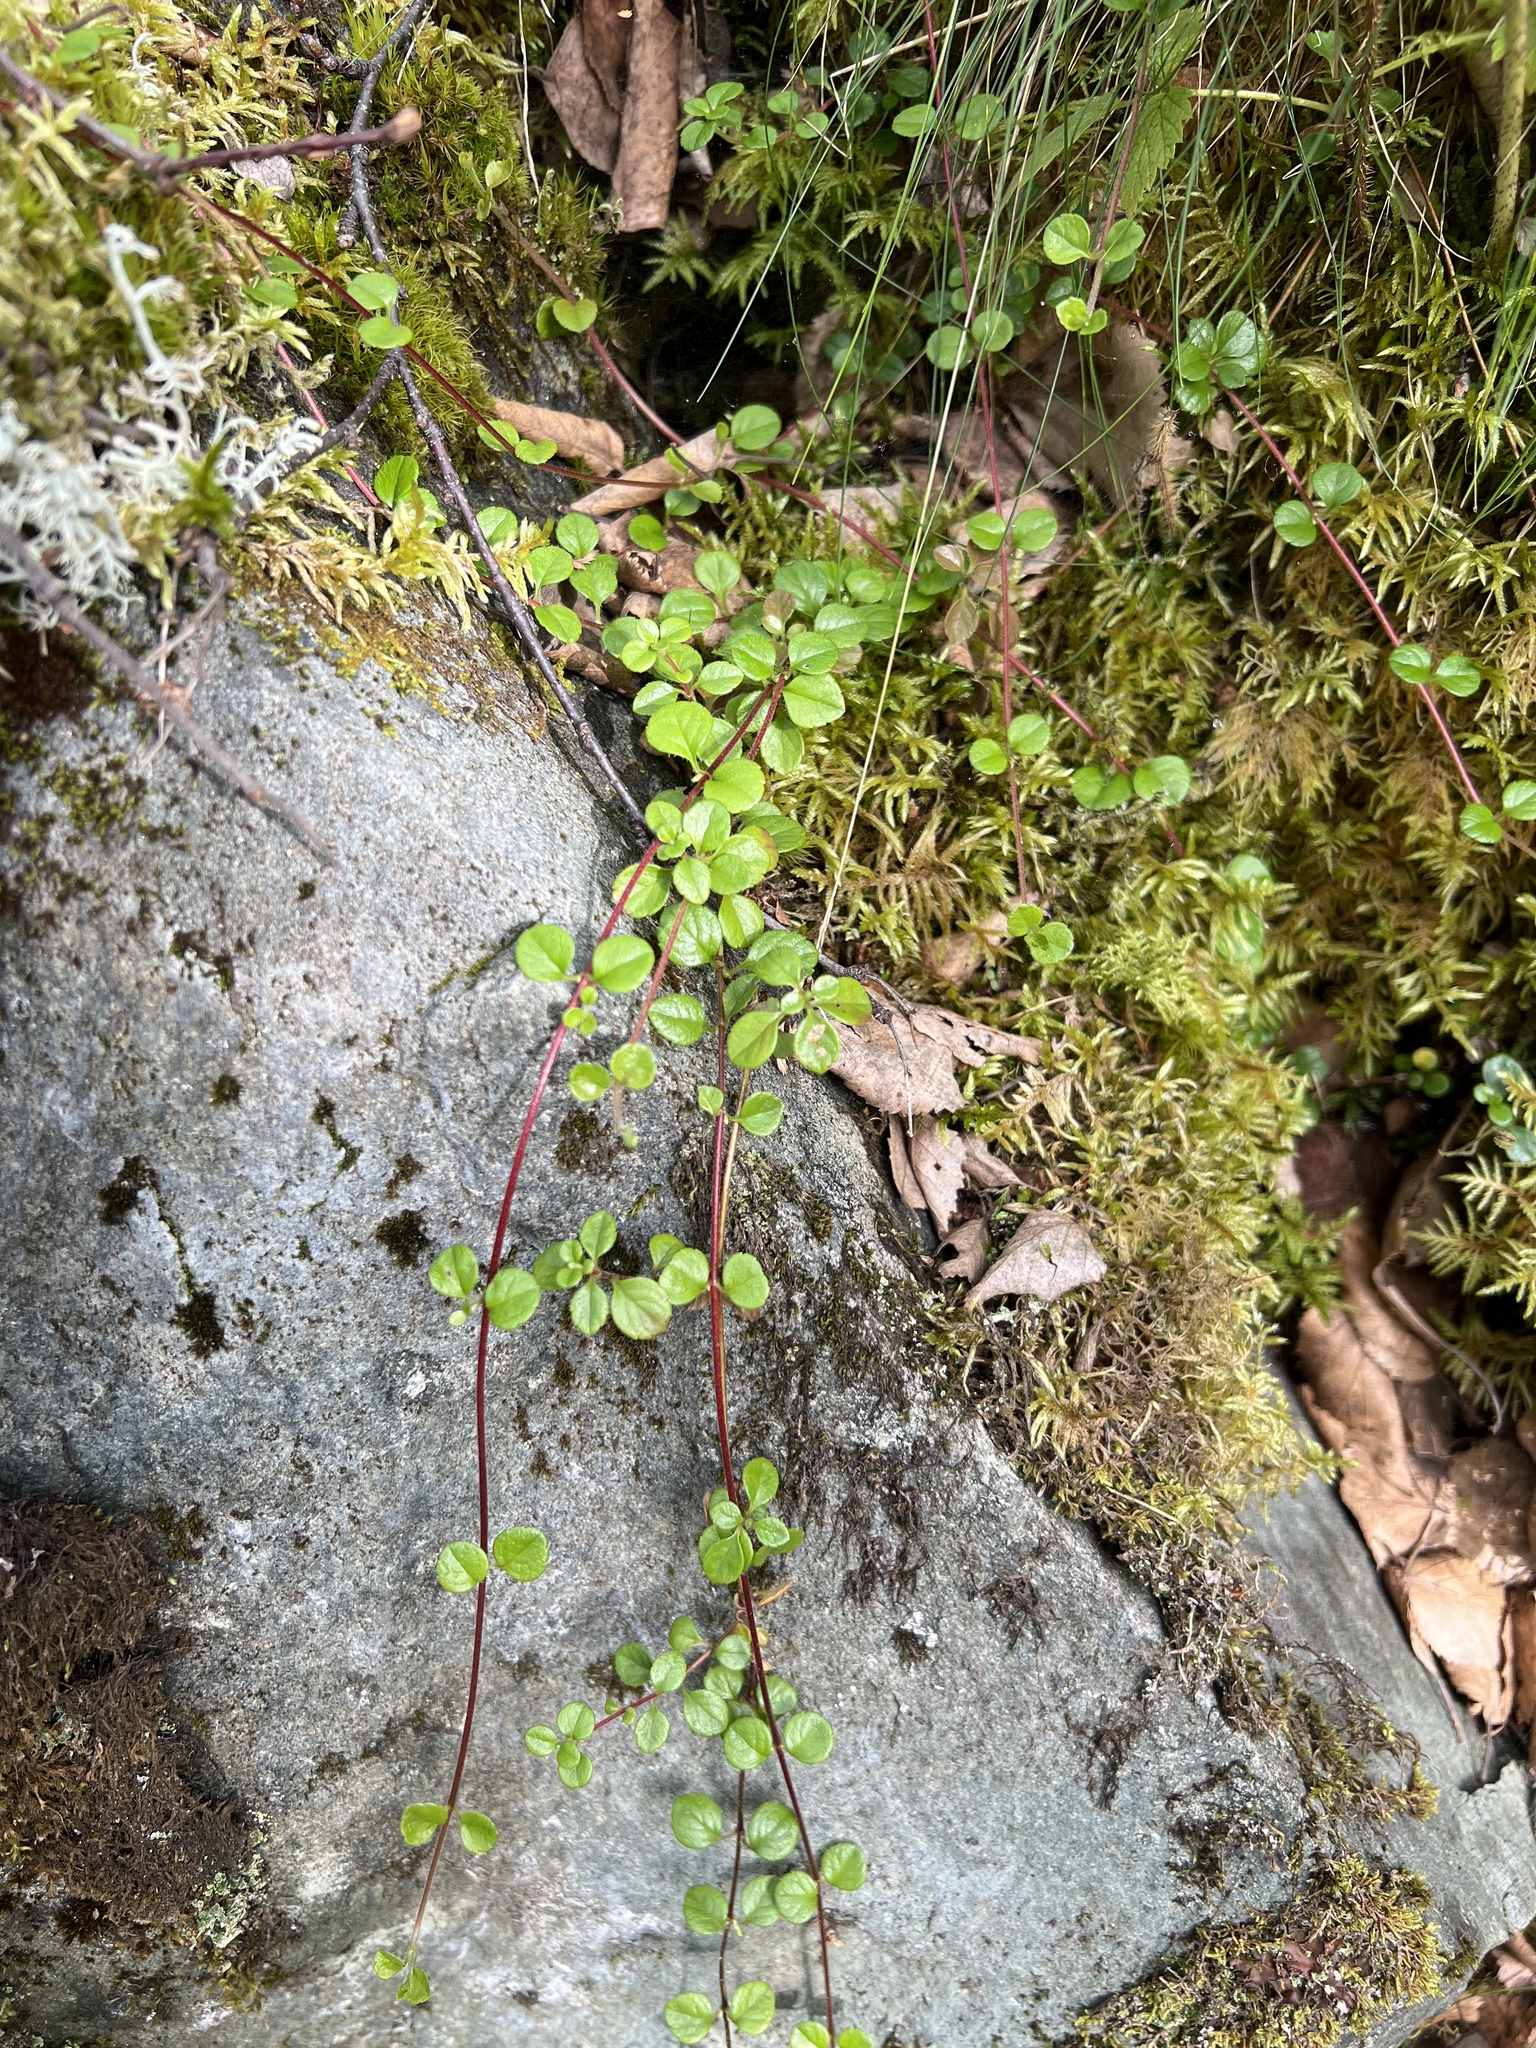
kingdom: Plantae
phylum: Tracheophyta
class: Magnoliopsida
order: Dipsacales
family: Caprifoliaceae
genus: Linnaea
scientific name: Linnaea borealis
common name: Twinflower
